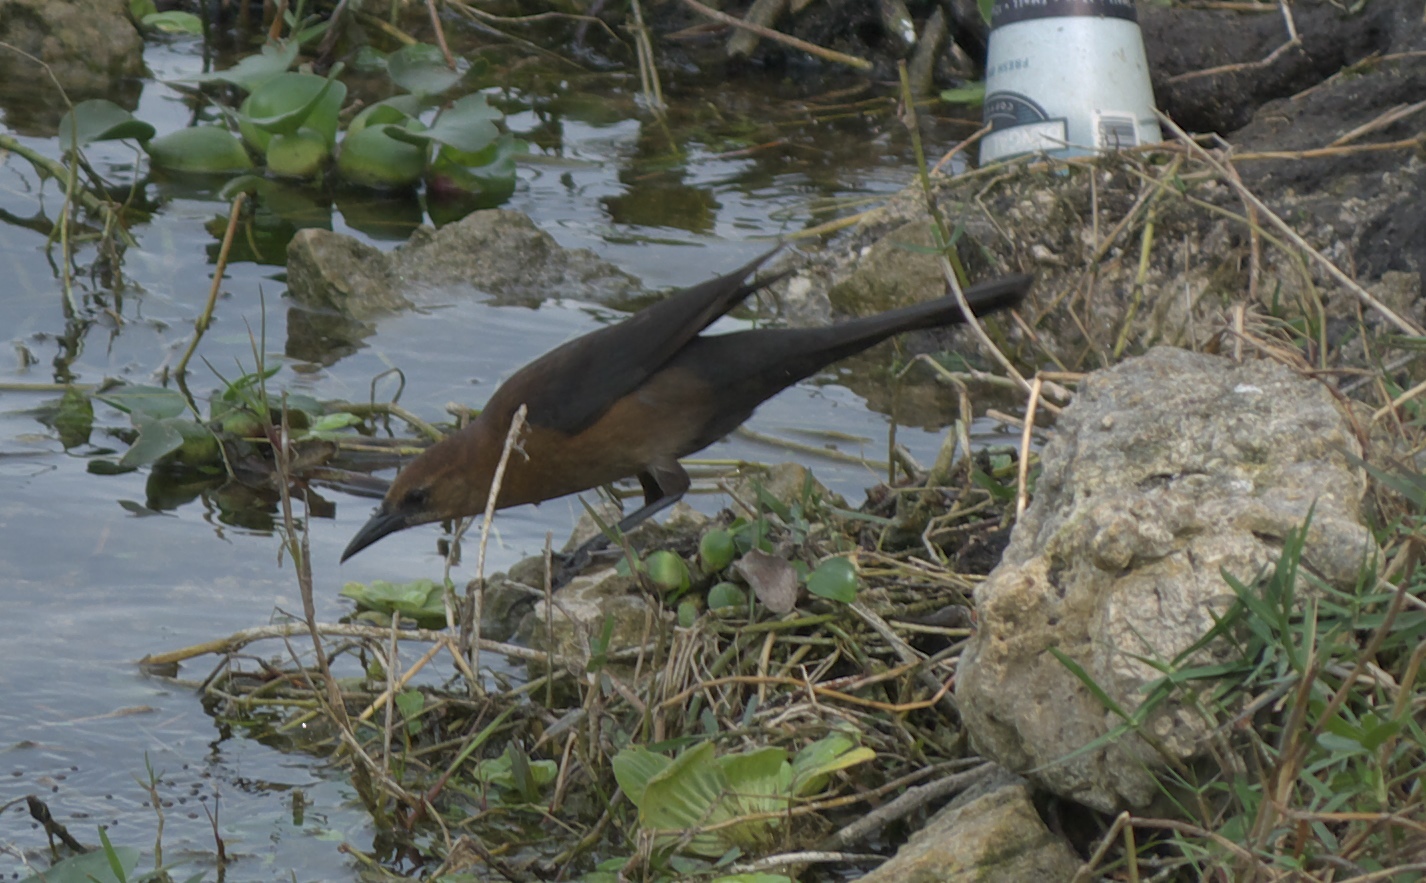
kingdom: Animalia
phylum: Chordata
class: Aves
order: Passeriformes
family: Icteridae
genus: Quiscalus
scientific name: Quiscalus major
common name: Boat-tailed grackle
